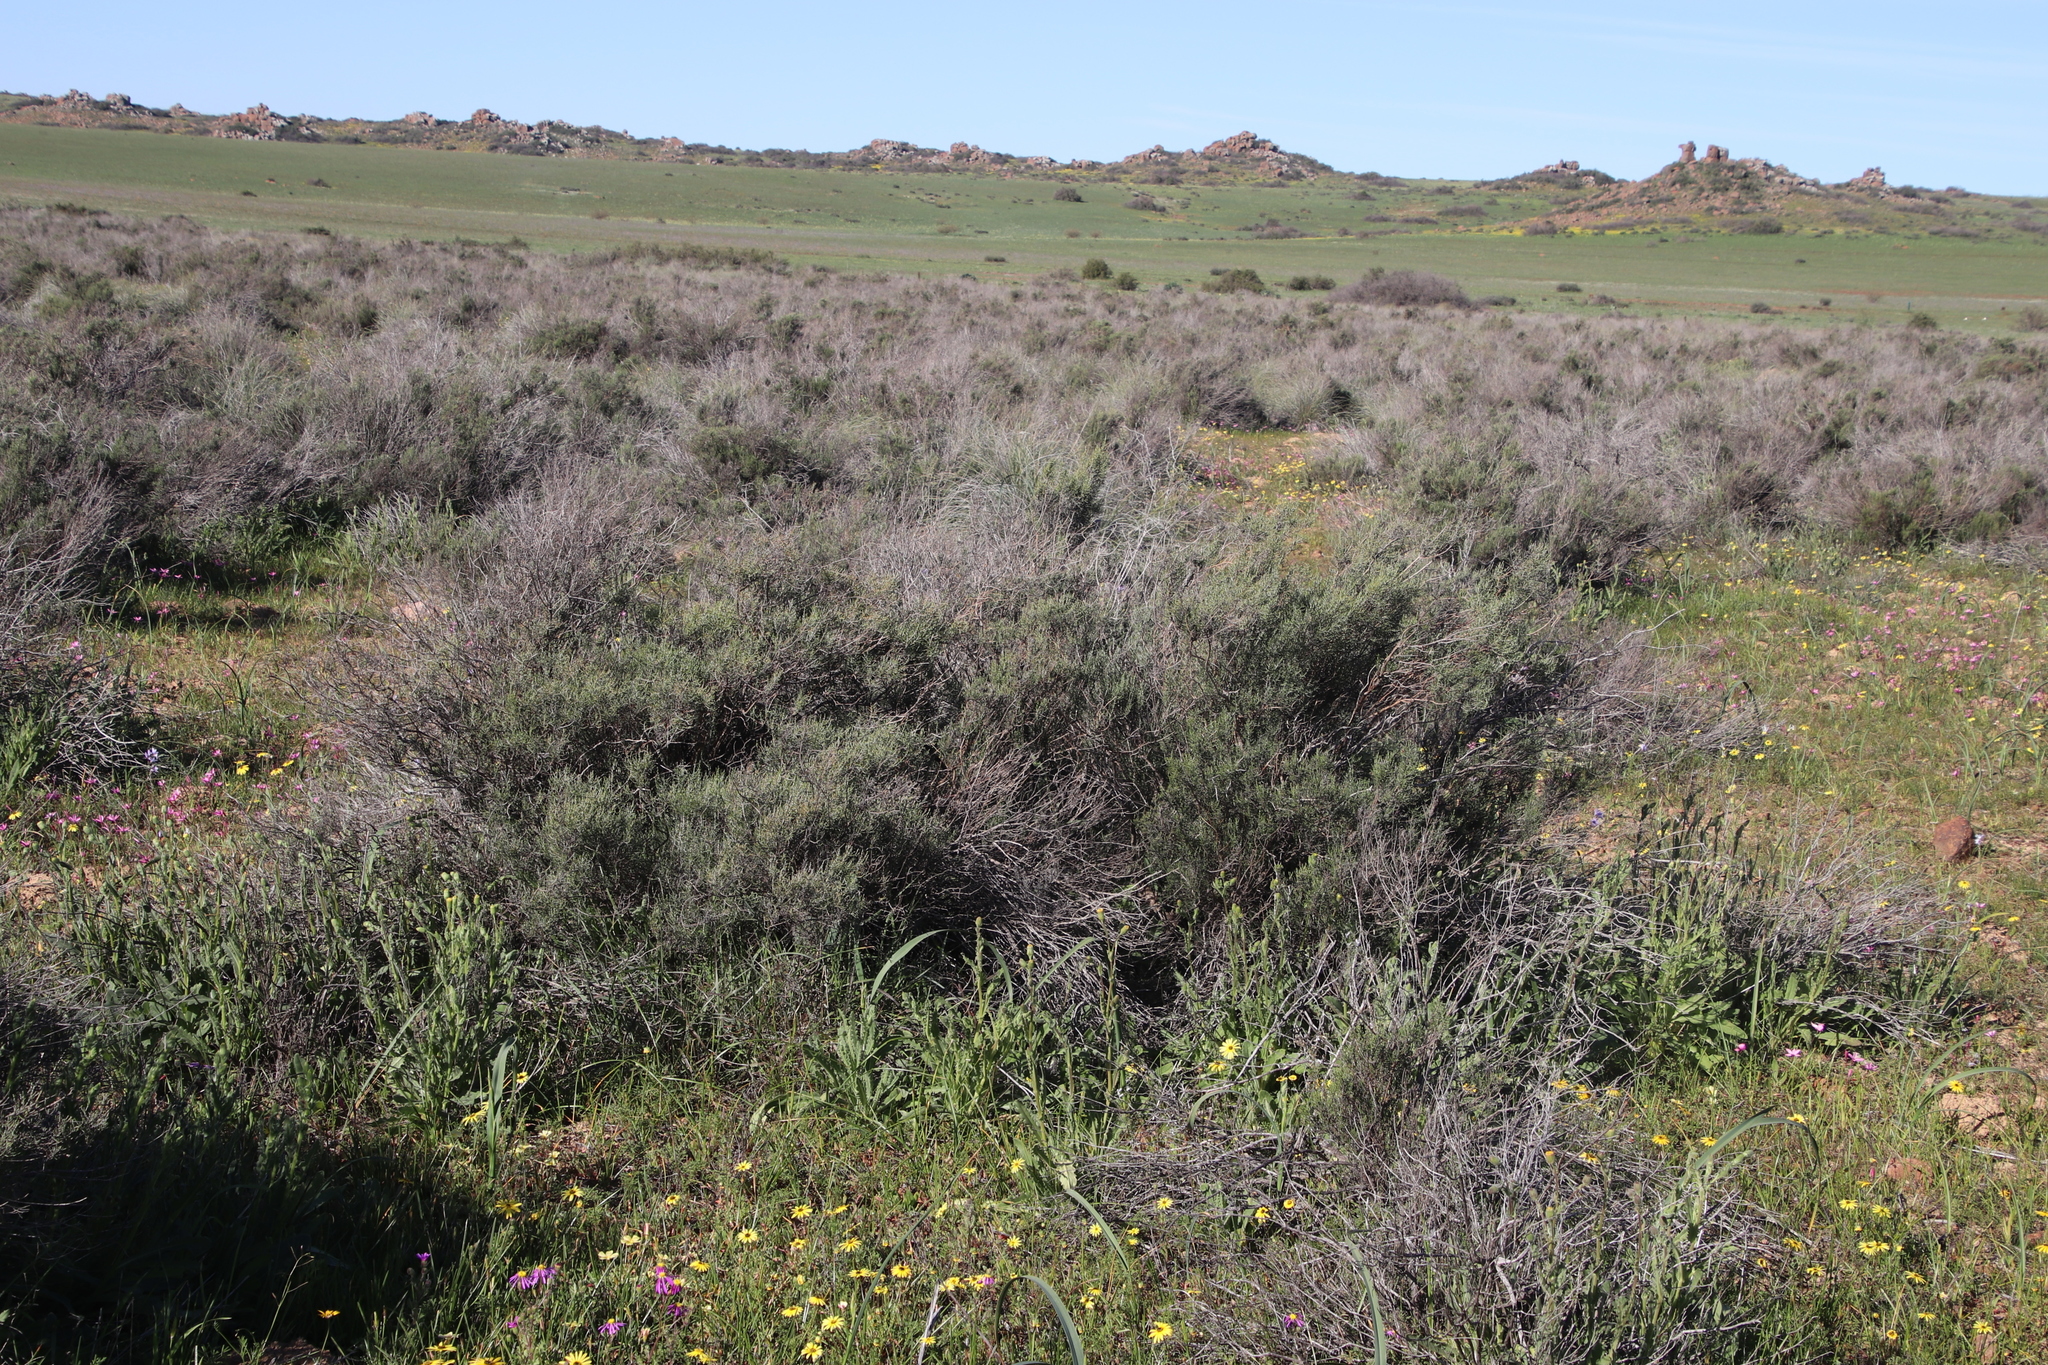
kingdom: Plantae
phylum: Tracheophyta
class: Magnoliopsida
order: Asterales
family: Asteraceae
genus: Dicerothamnus
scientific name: Dicerothamnus rhinocerotis
